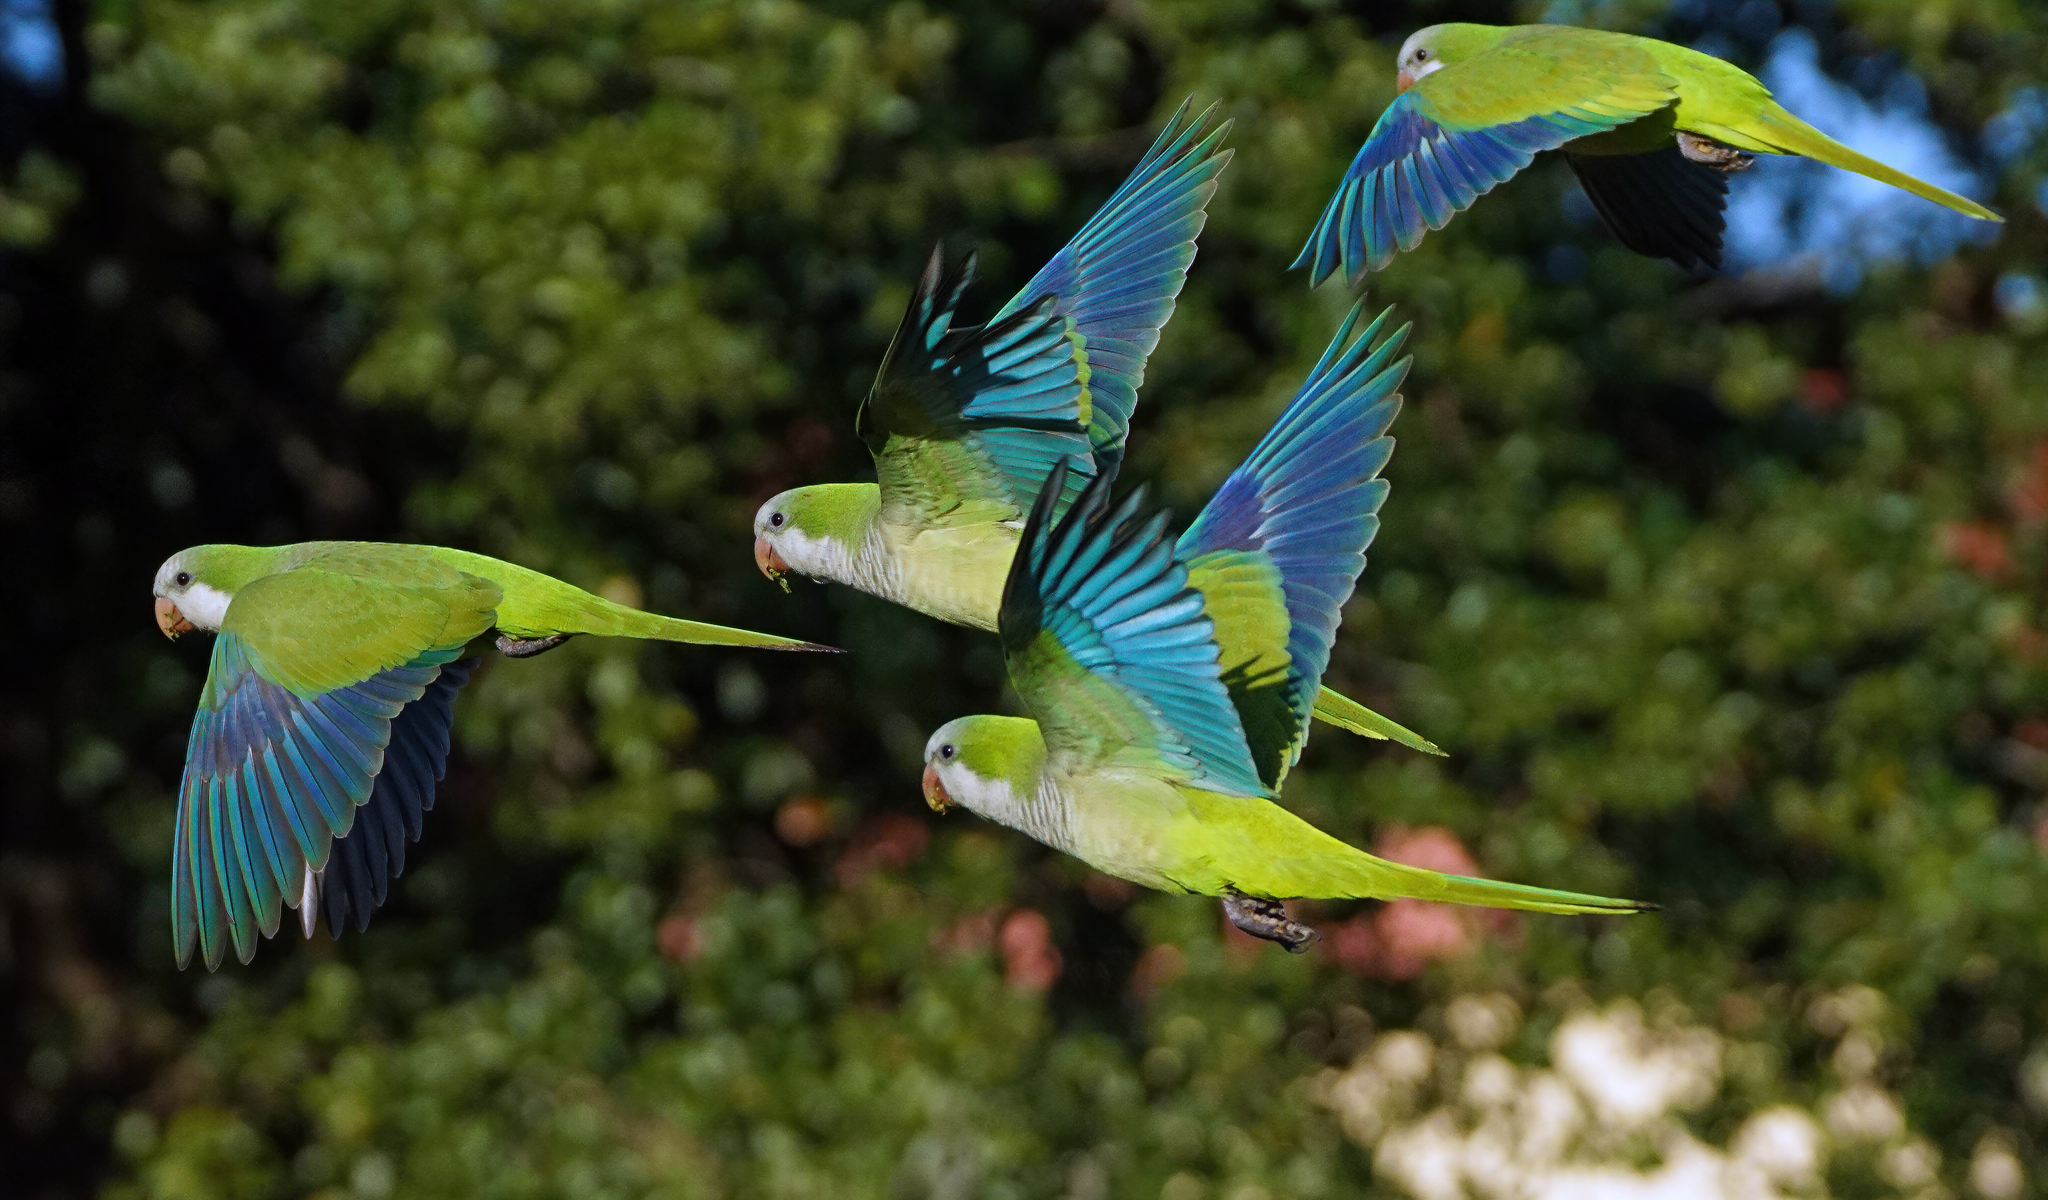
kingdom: Animalia
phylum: Chordata
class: Aves
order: Psittaciformes
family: Psittacidae
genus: Myiopsitta
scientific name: Myiopsitta monachus
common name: Monk parakeet
